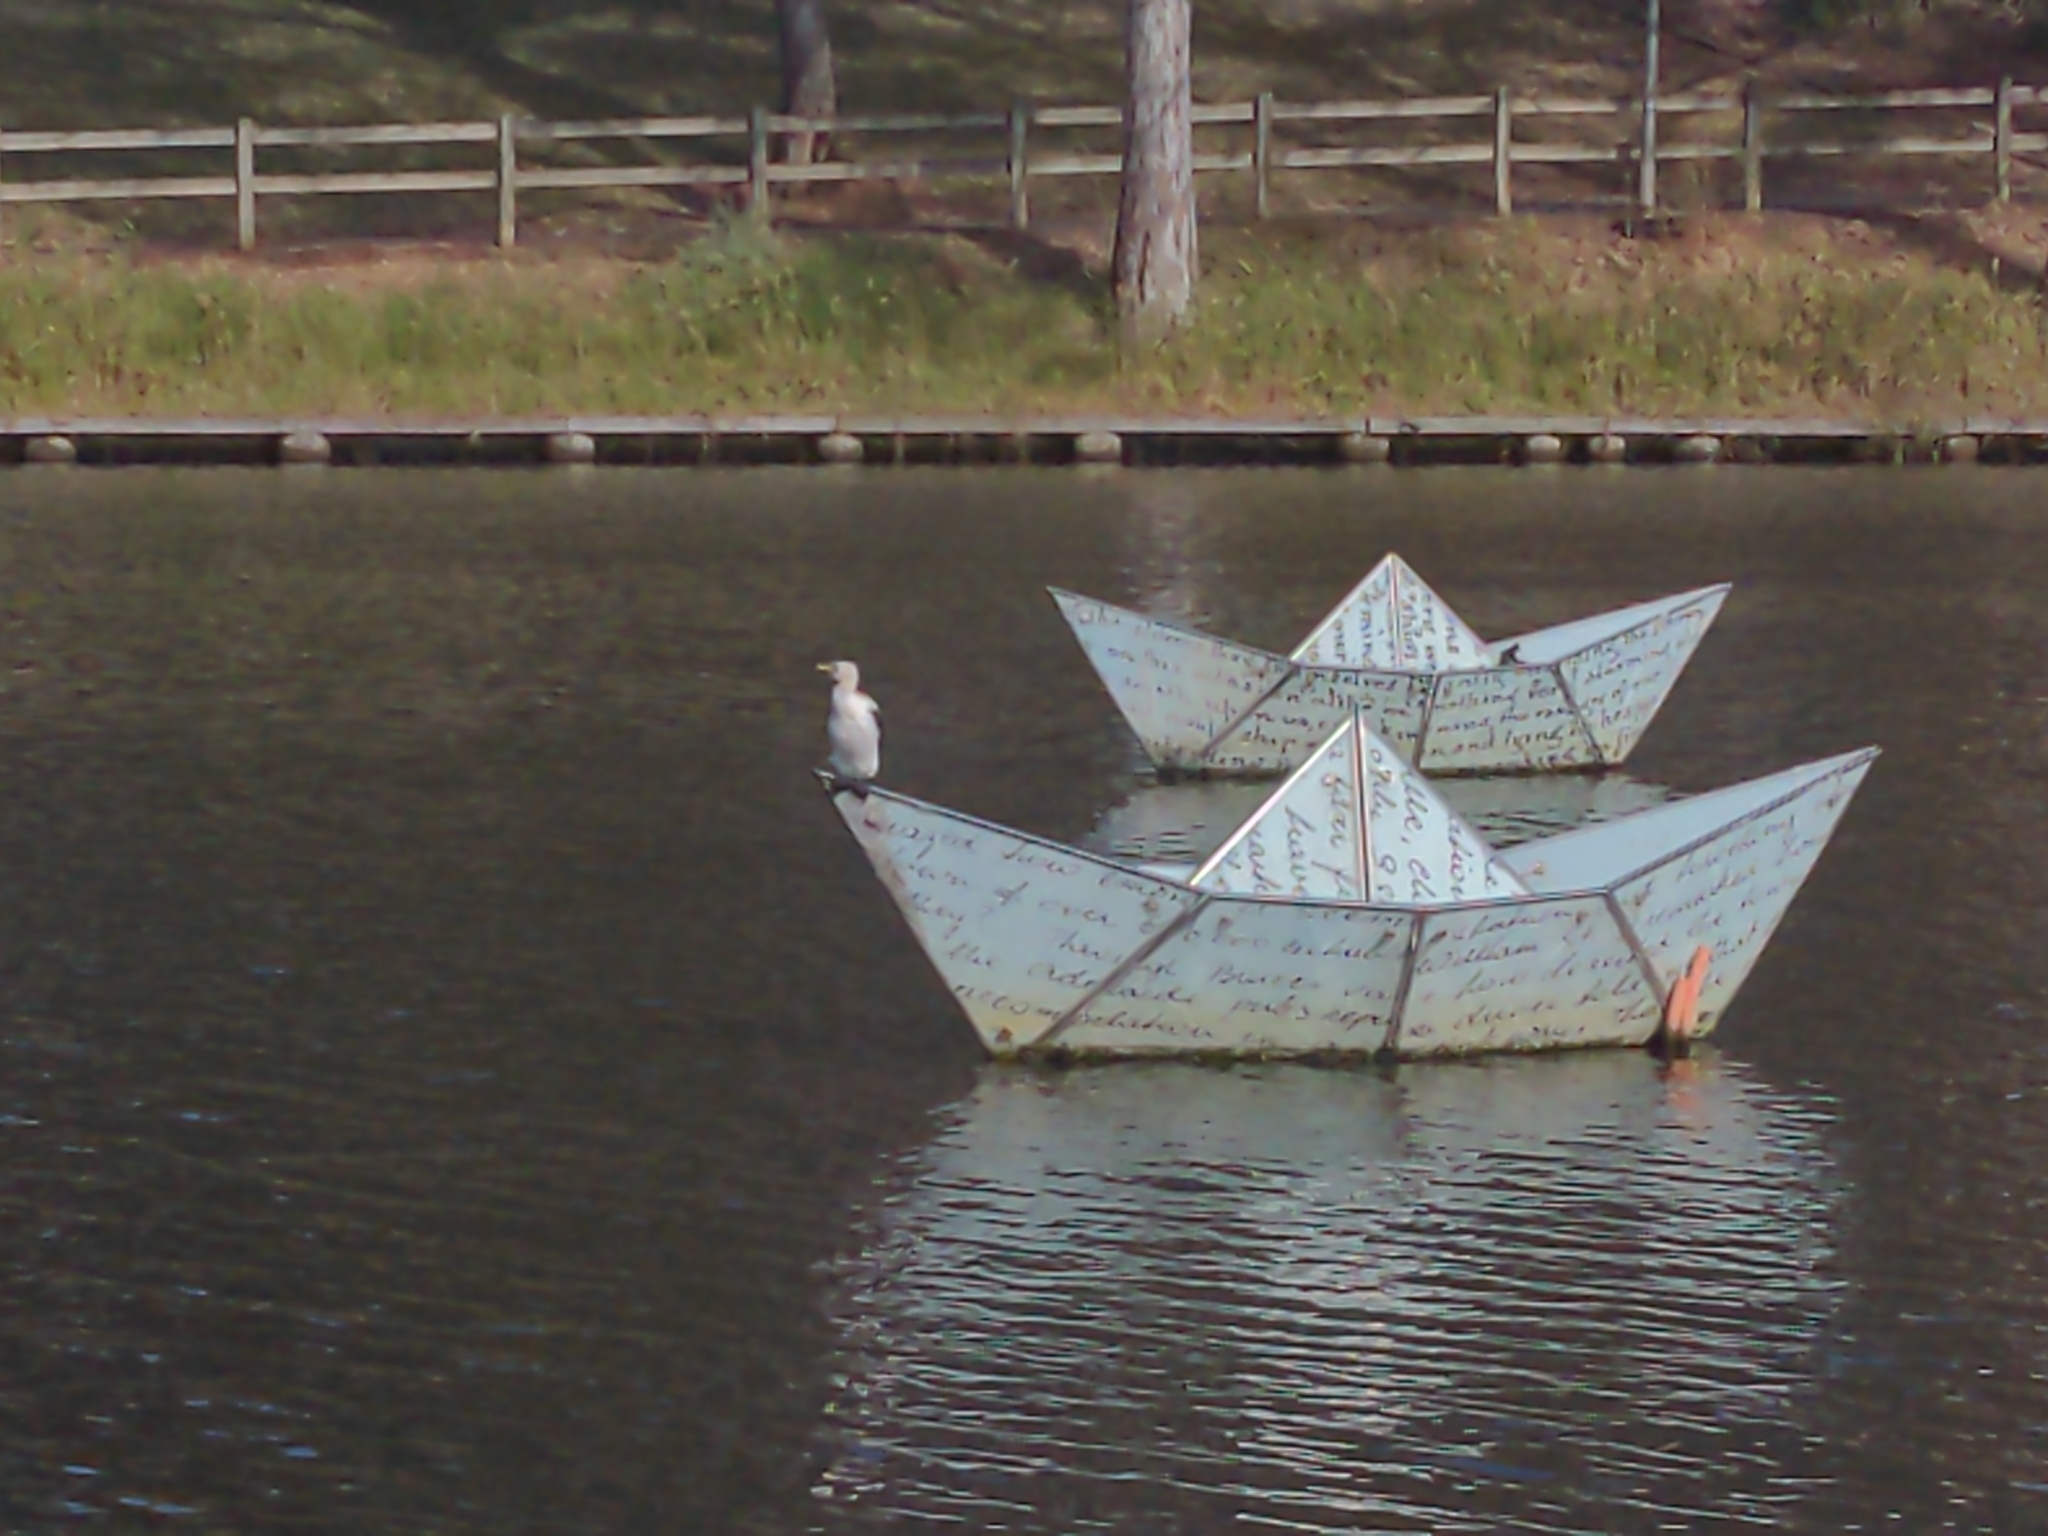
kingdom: Animalia
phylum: Chordata
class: Aves
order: Suliformes
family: Phalacrocoracidae
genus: Microcarbo
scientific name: Microcarbo melanoleucos
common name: Little pied cormorant
